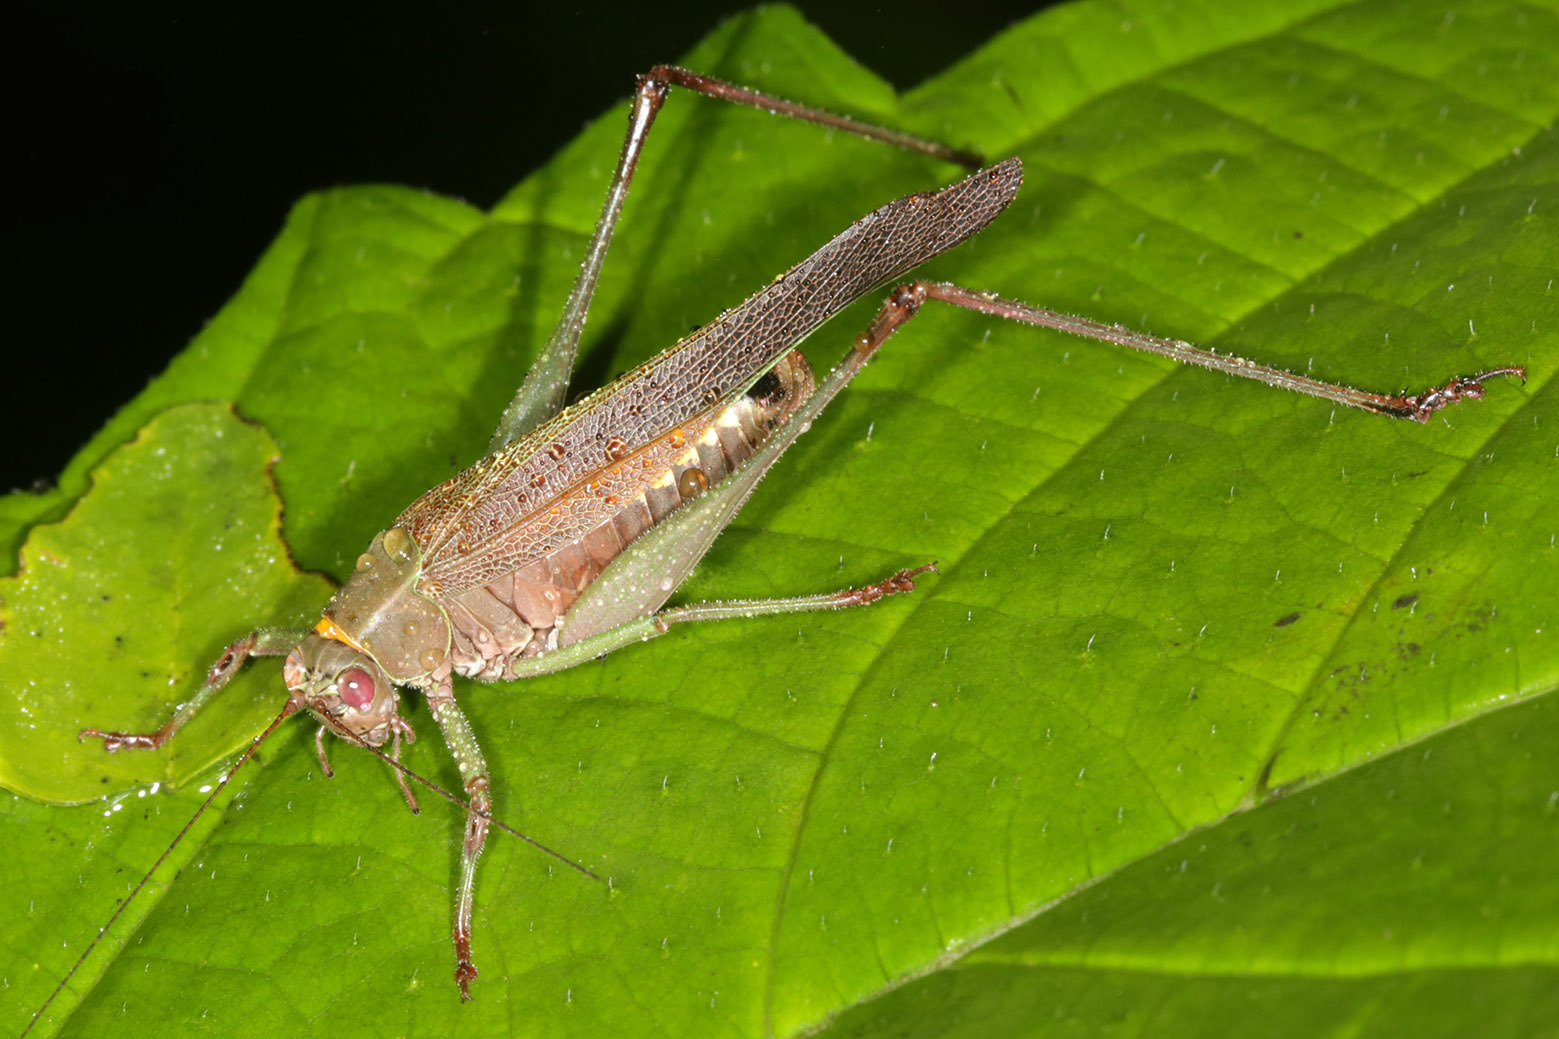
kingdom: Animalia
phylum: Arthropoda
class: Insecta
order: Orthoptera
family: Tettigoniidae
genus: Enthephippion
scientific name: Enthephippion borellii
